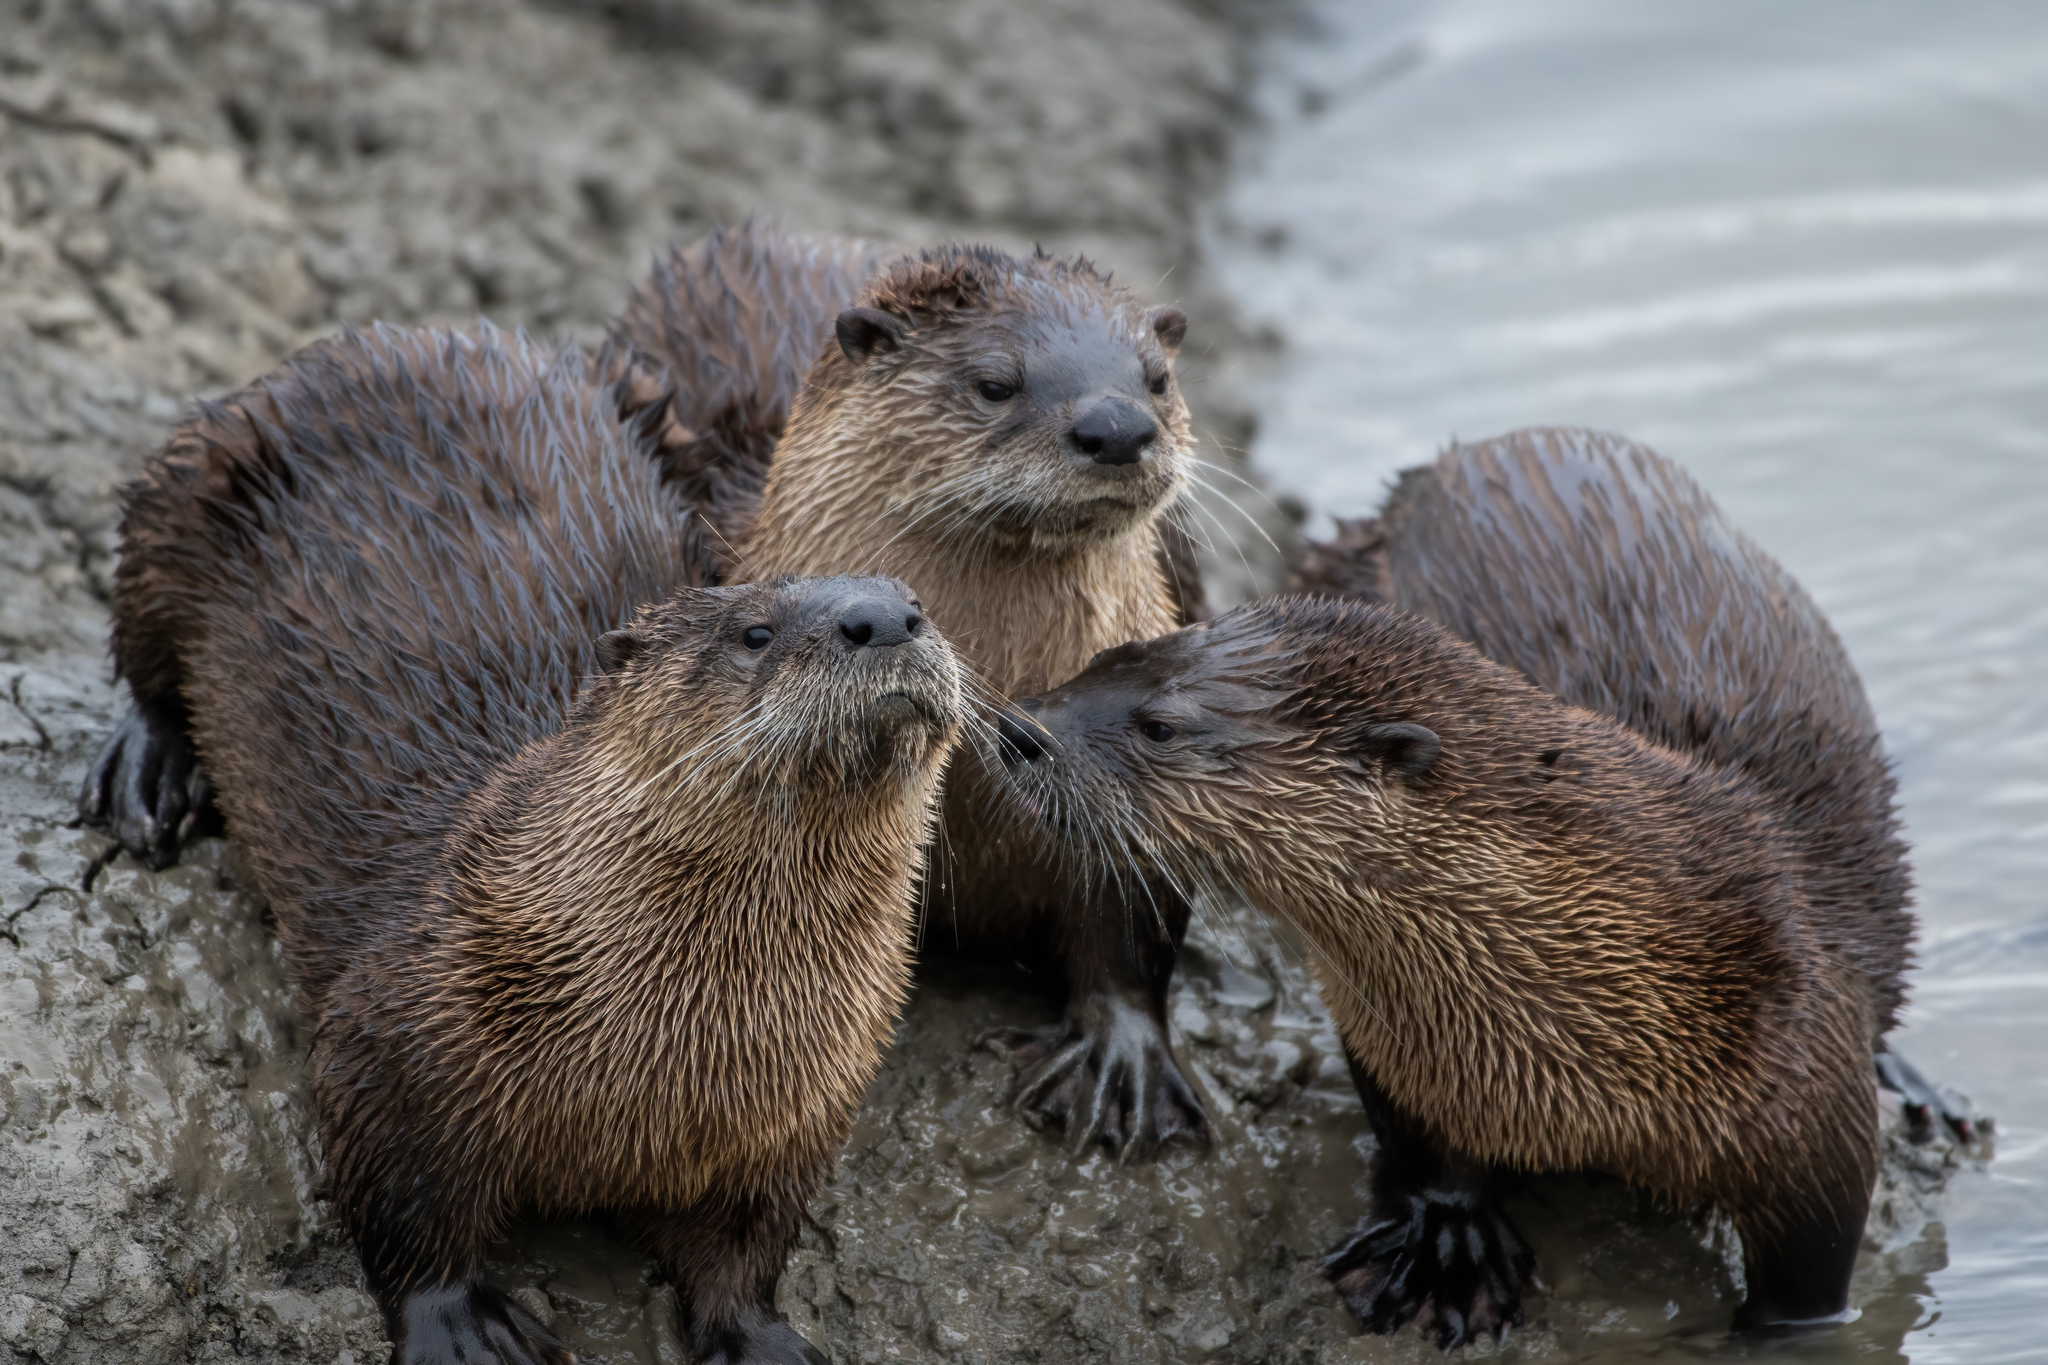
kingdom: Animalia
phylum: Chordata
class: Mammalia
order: Carnivora
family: Mustelidae
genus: Lontra
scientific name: Lontra canadensis
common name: North american river otter
